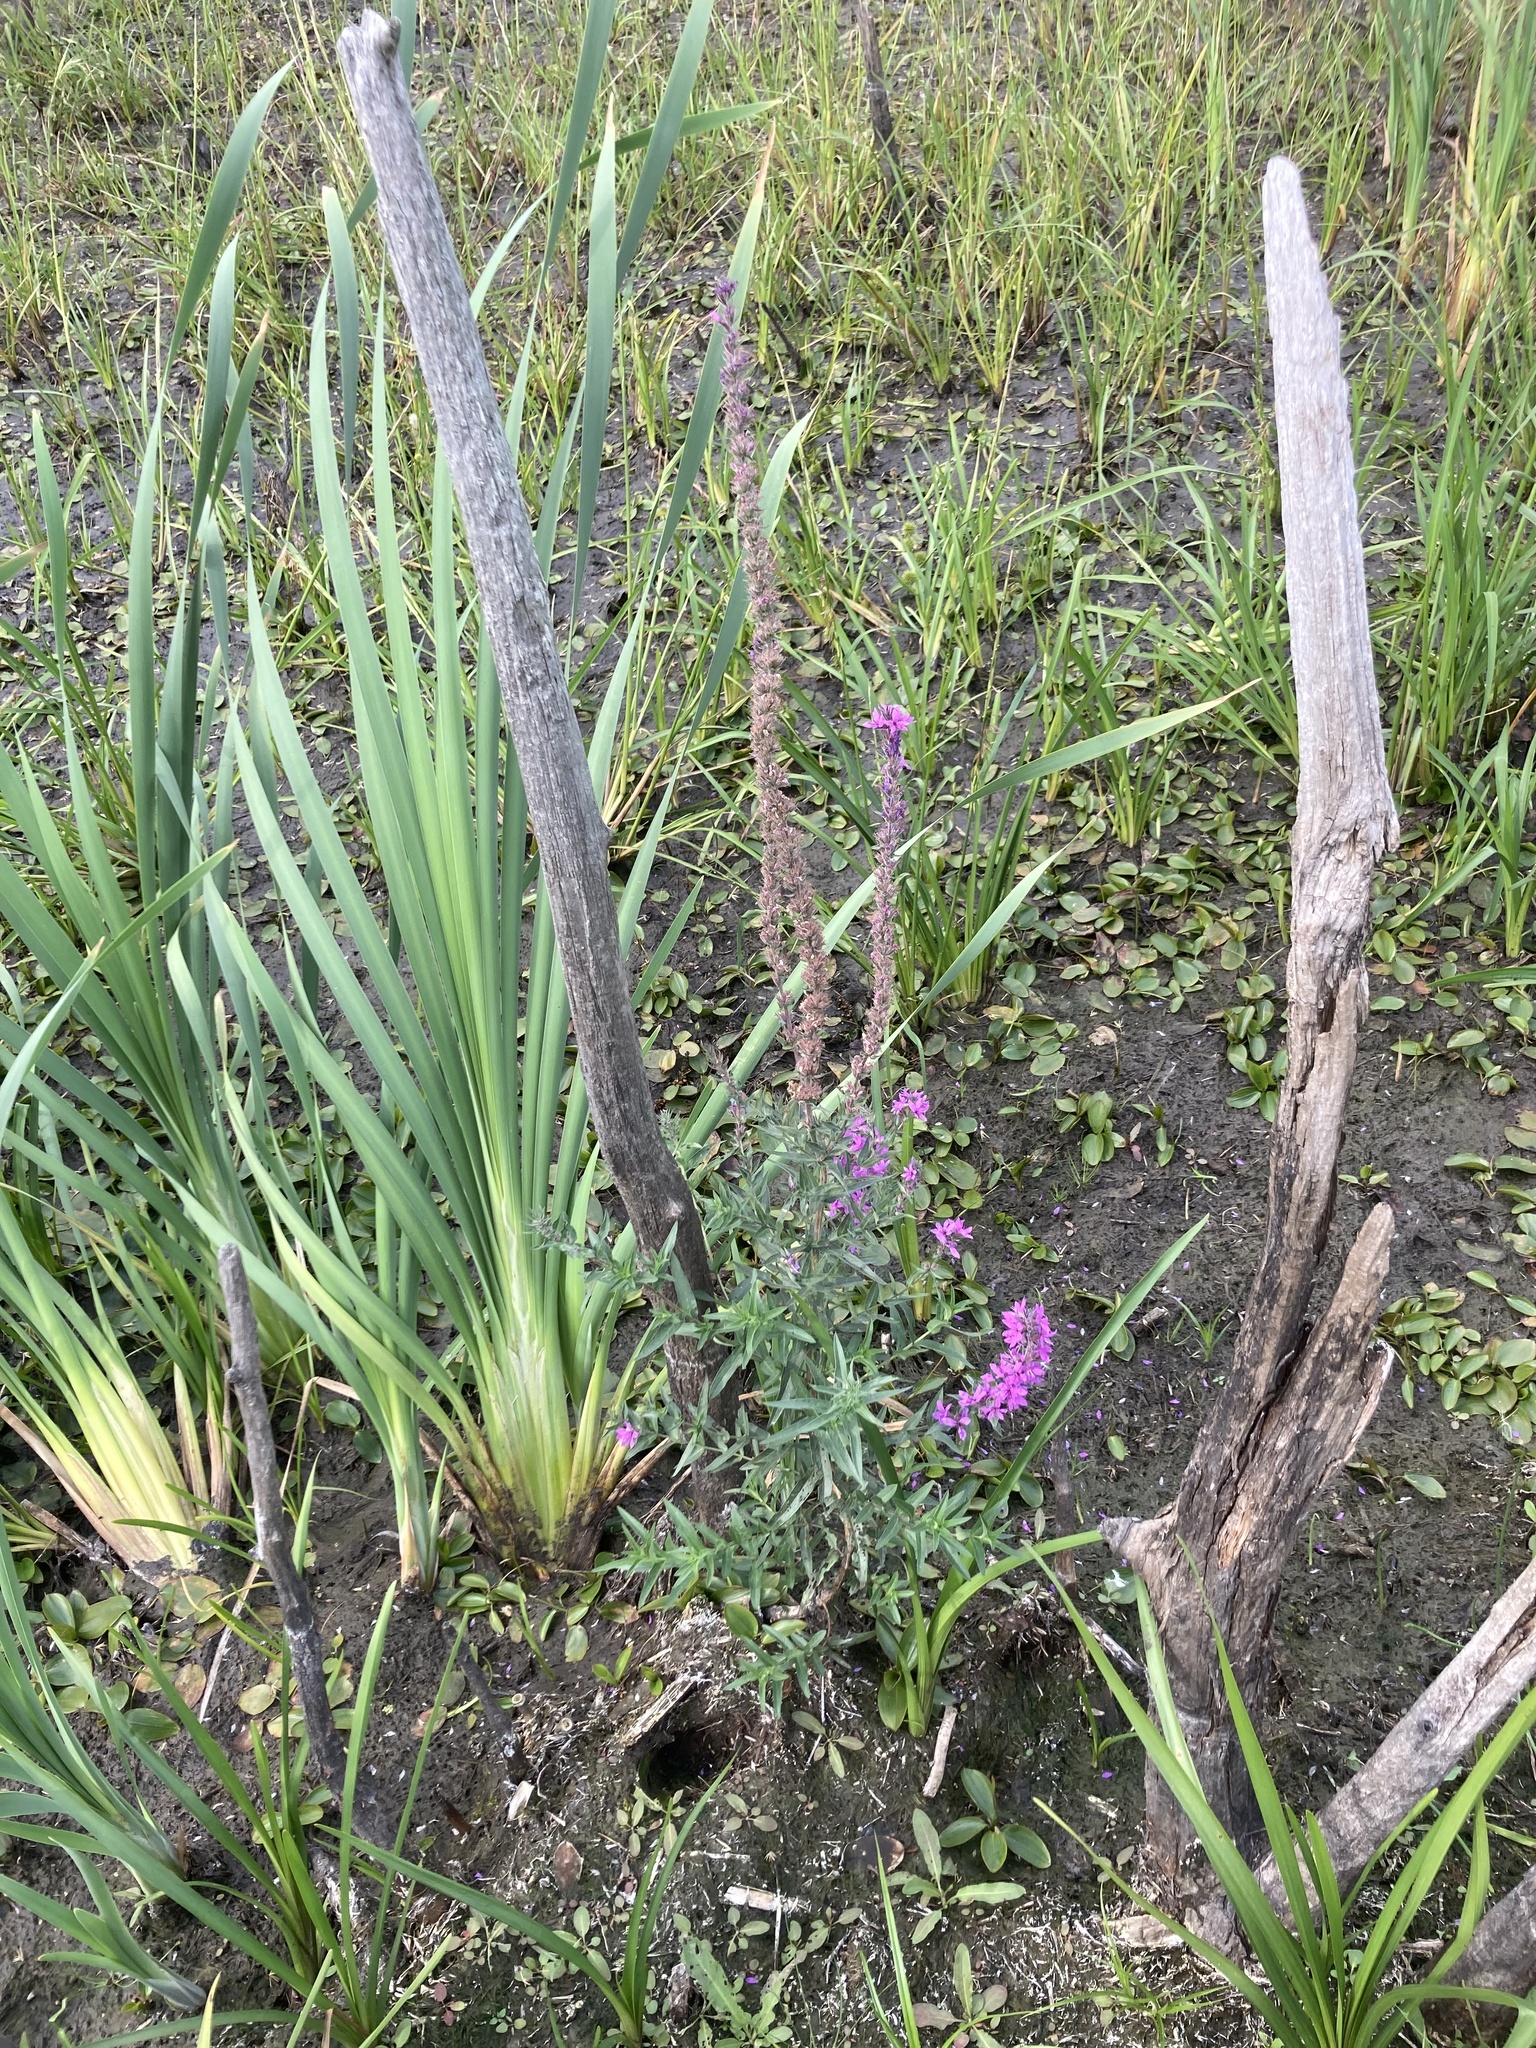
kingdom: Plantae
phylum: Tracheophyta
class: Magnoliopsida
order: Myrtales
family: Lythraceae
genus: Lythrum
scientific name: Lythrum salicaria
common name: Purple loosestrife
